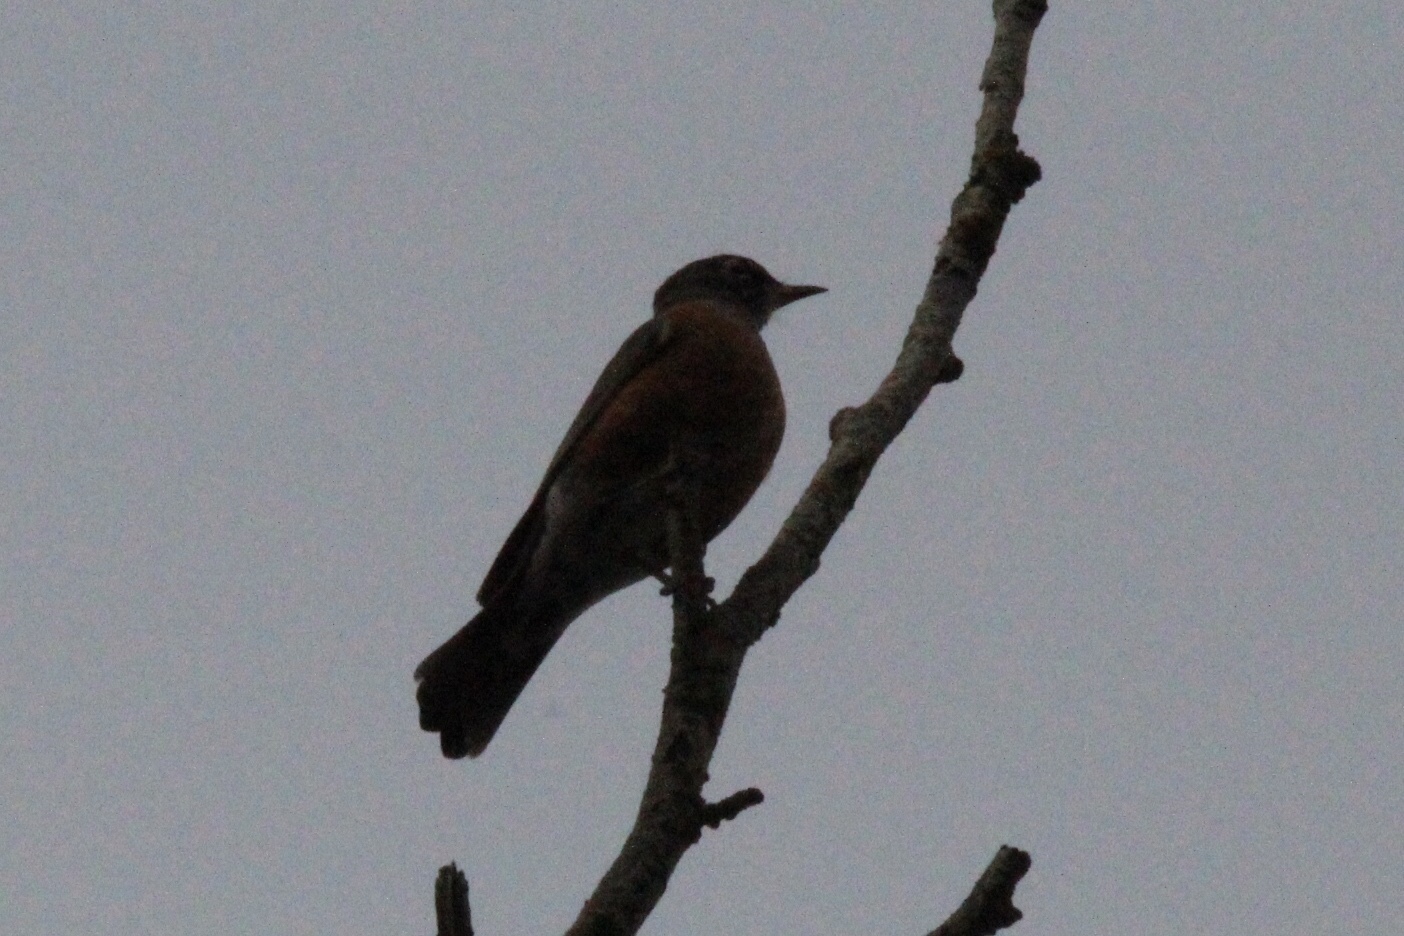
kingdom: Animalia
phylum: Chordata
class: Aves
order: Passeriformes
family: Turdidae
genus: Turdus
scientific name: Turdus migratorius
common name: American robin
